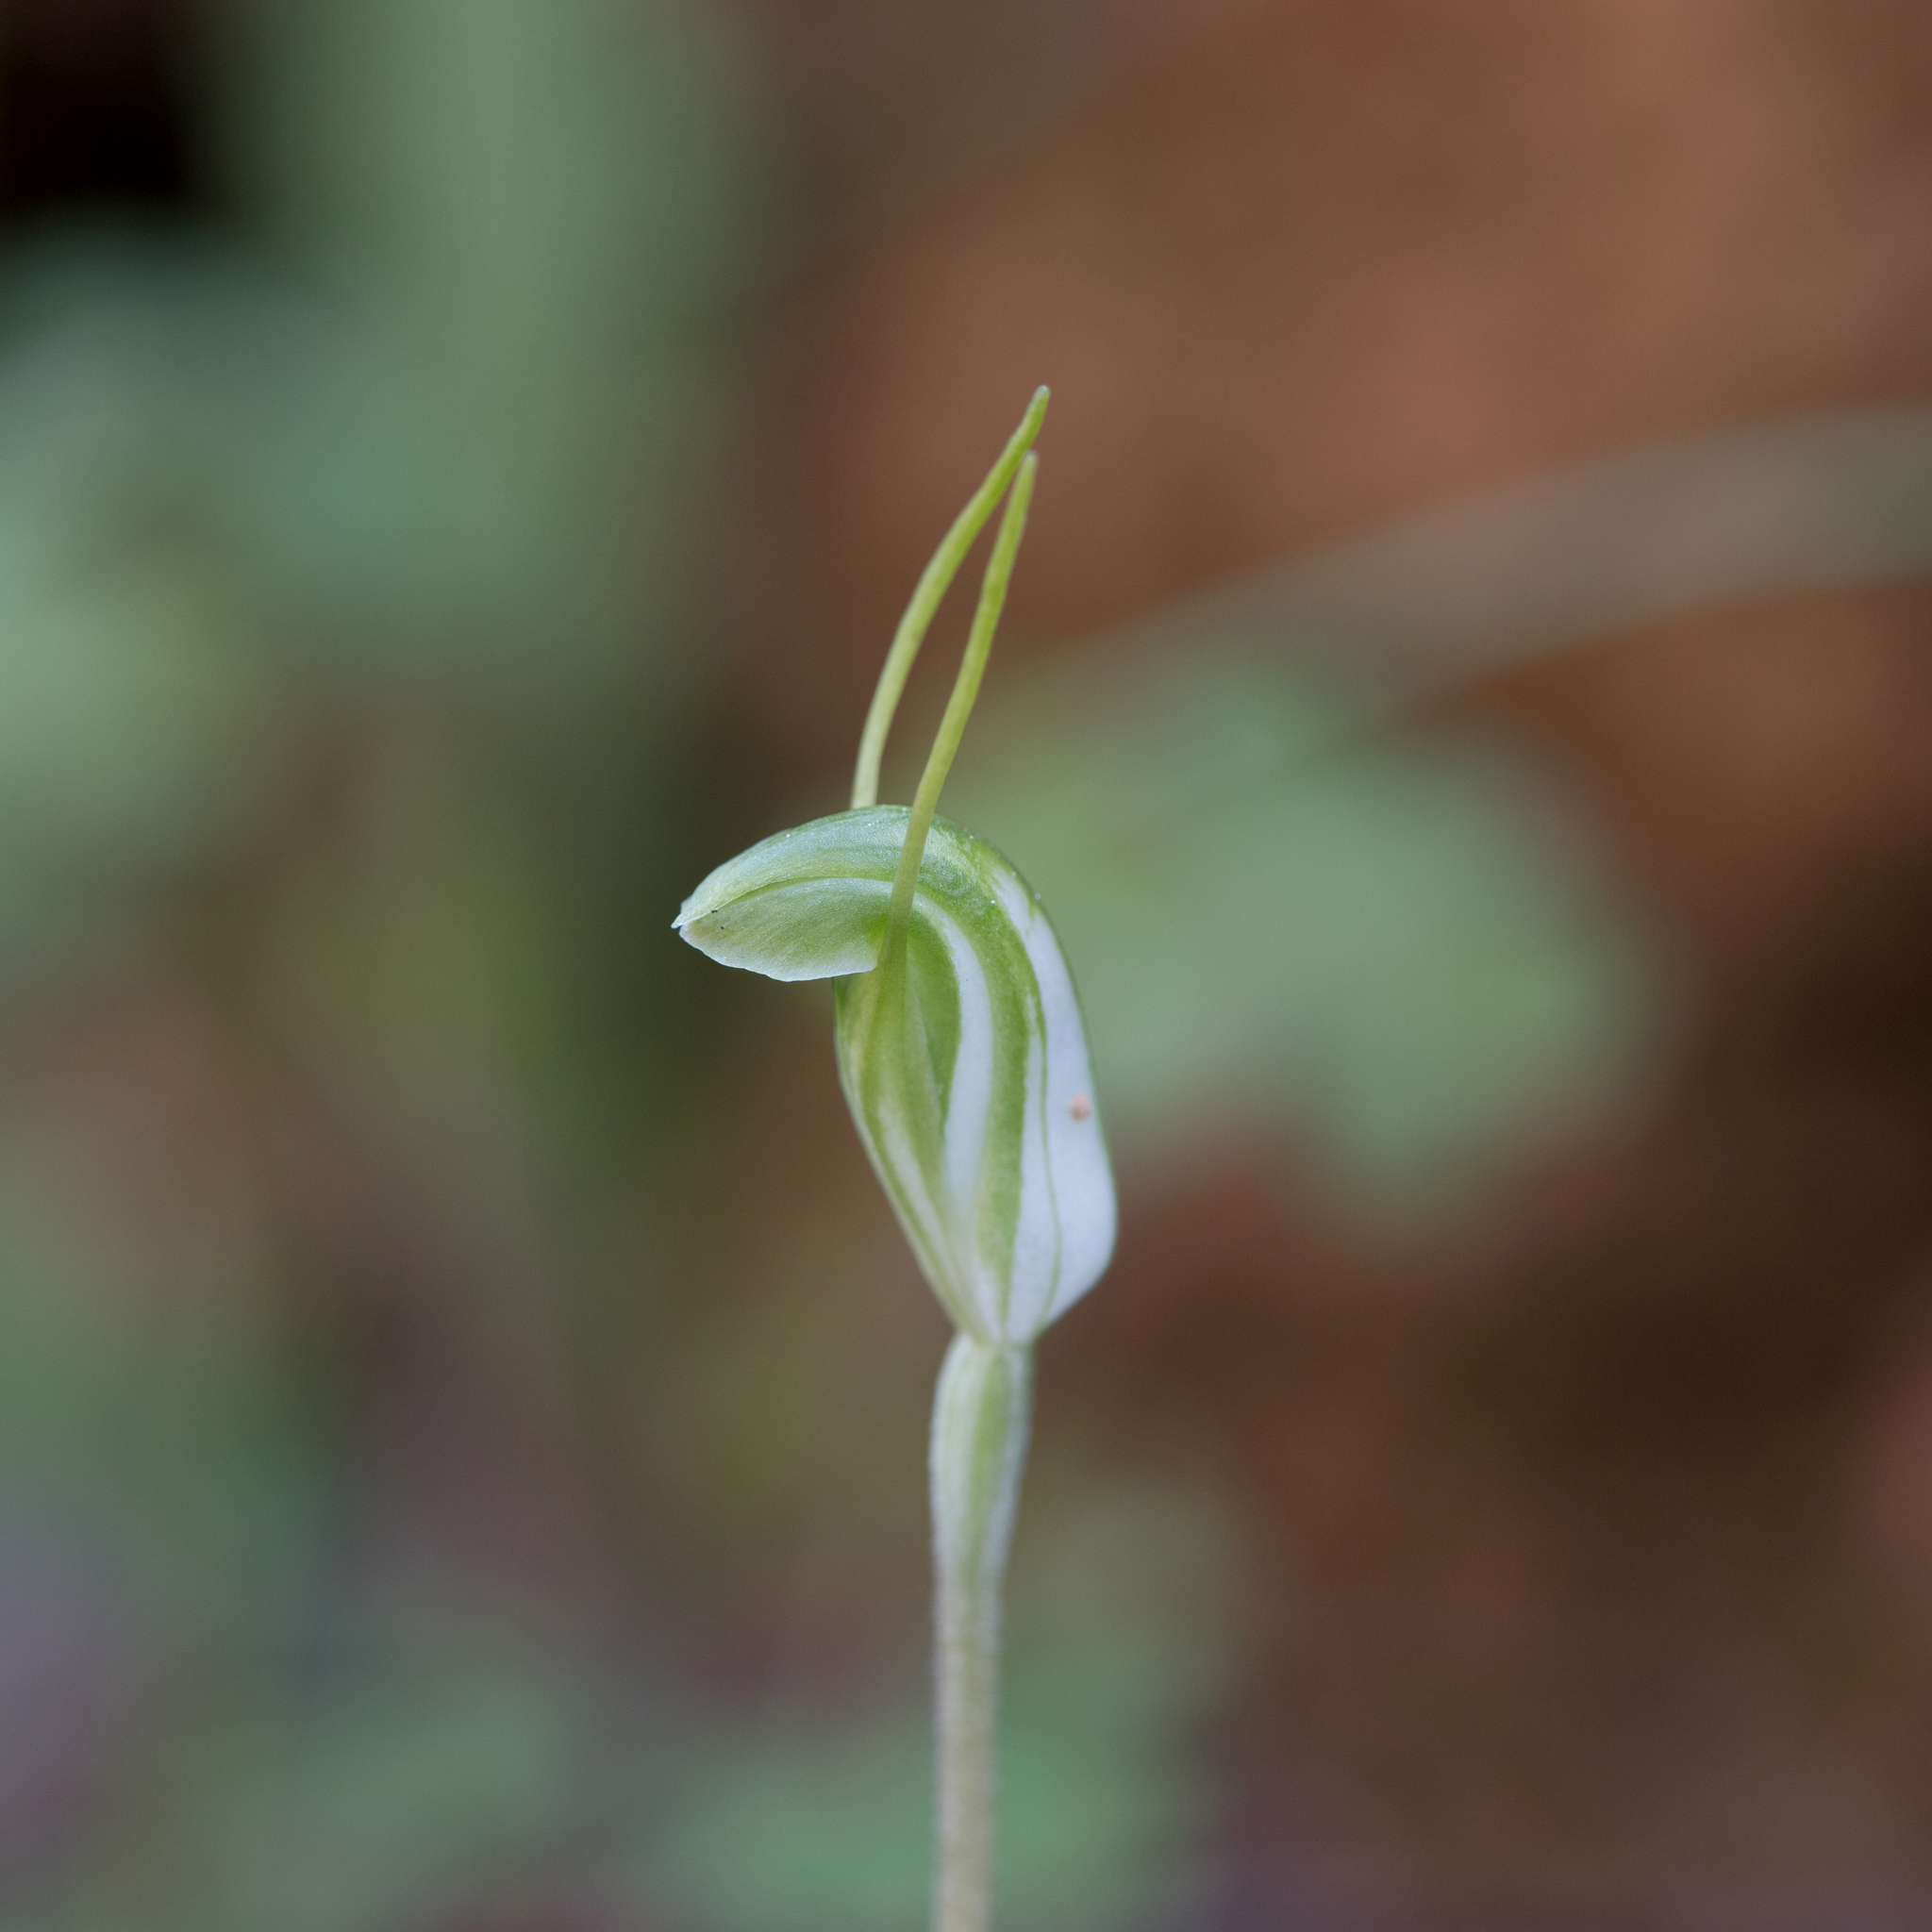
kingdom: Plantae
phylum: Tracheophyta
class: Liliopsida
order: Asparagales
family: Orchidaceae
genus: Pterostylis
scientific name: Pterostylis nana
